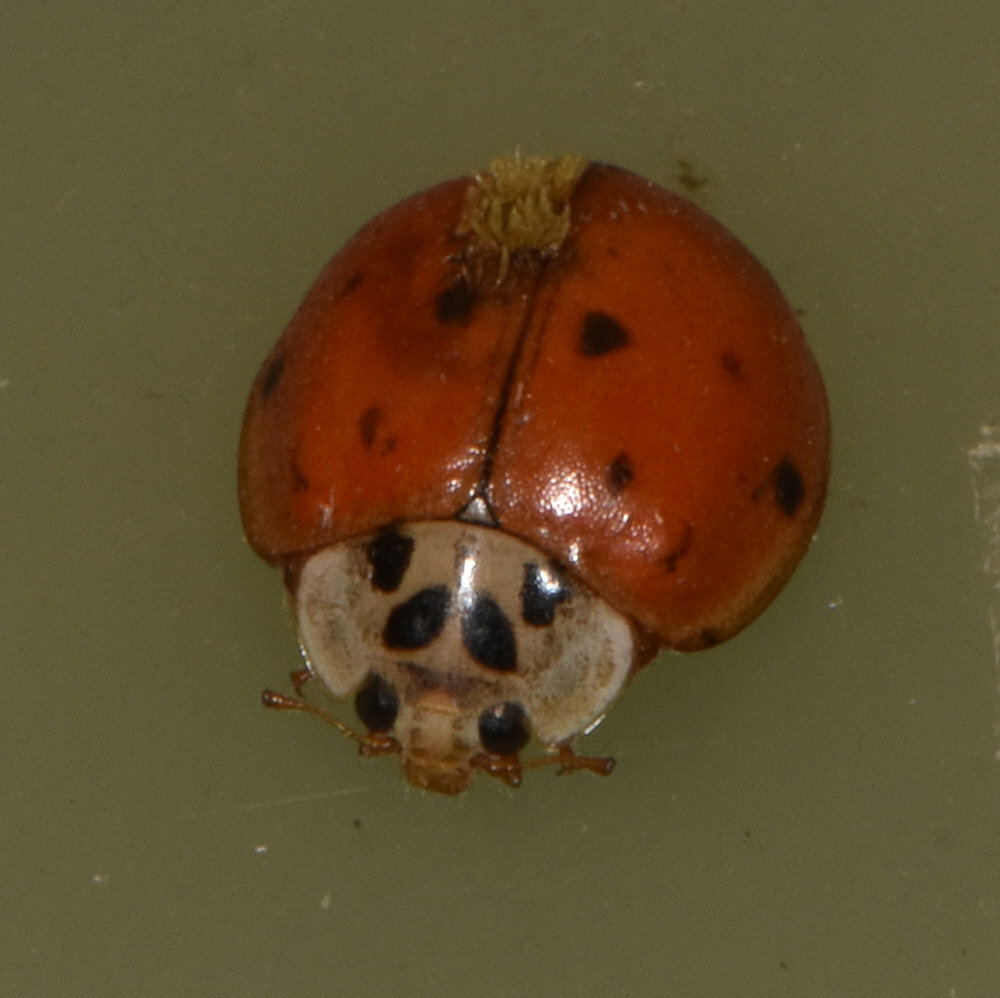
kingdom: Animalia
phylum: Arthropoda
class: Insecta
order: Coleoptera
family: Coccinellidae
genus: Harmonia
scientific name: Harmonia axyridis
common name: Harlequin ladybird
